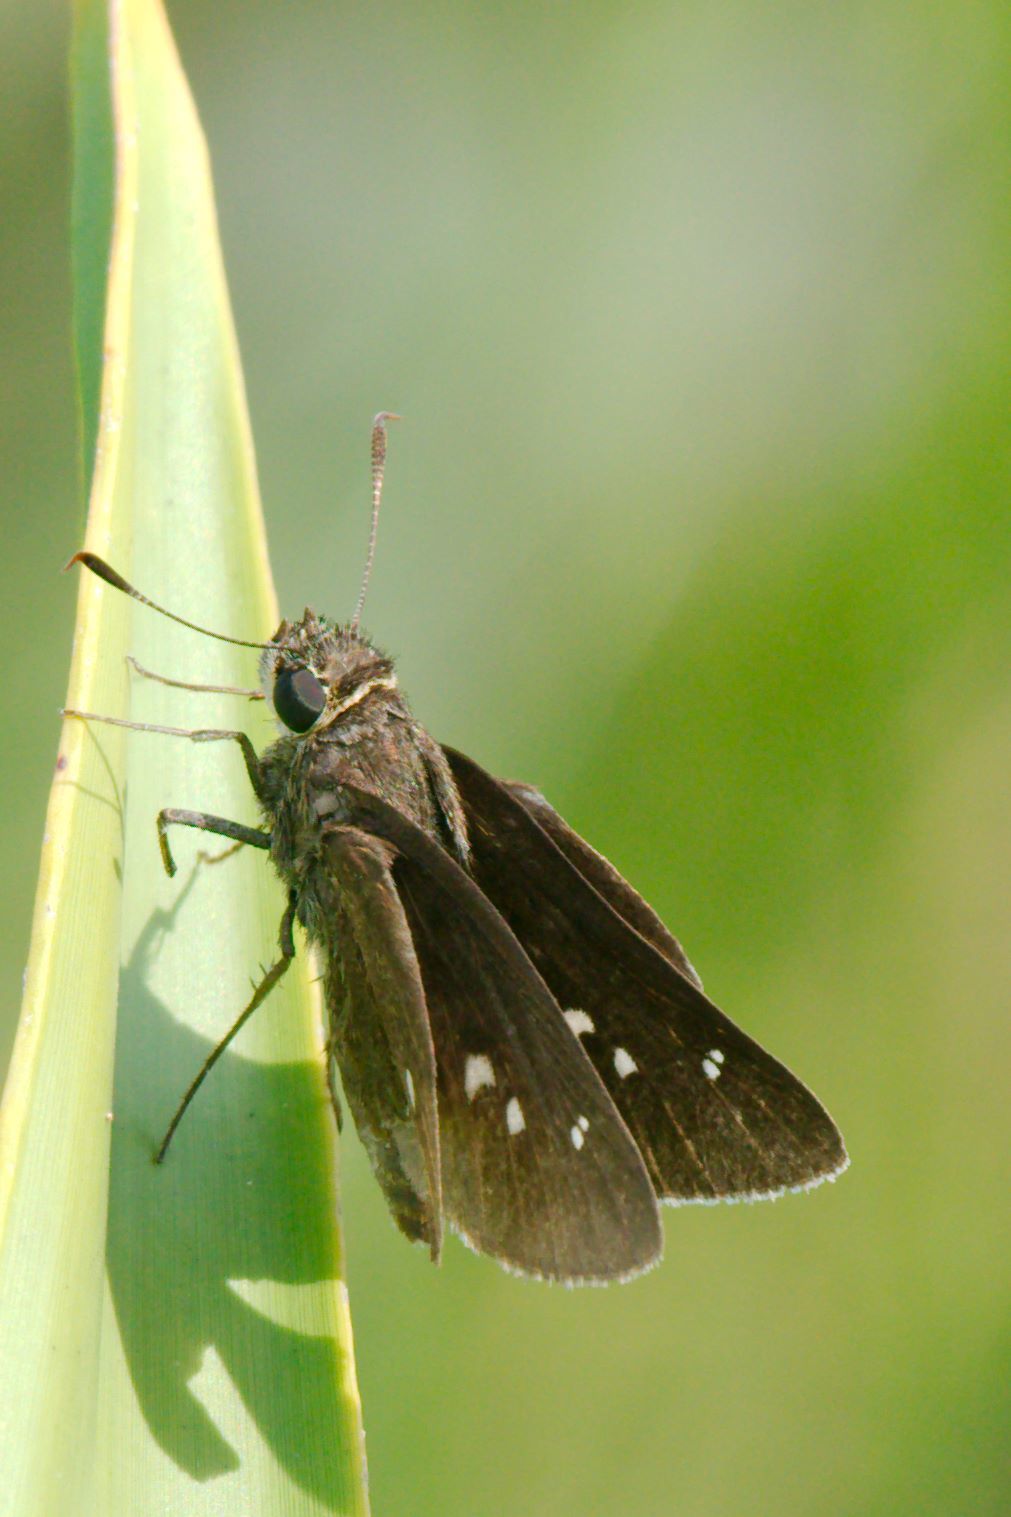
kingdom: Animalia
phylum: Arthropoda
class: Insecta
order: Lepidoptera
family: Hesperiidae
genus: Oligoria
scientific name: Oligoria maculata
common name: Twin-spot skipper
